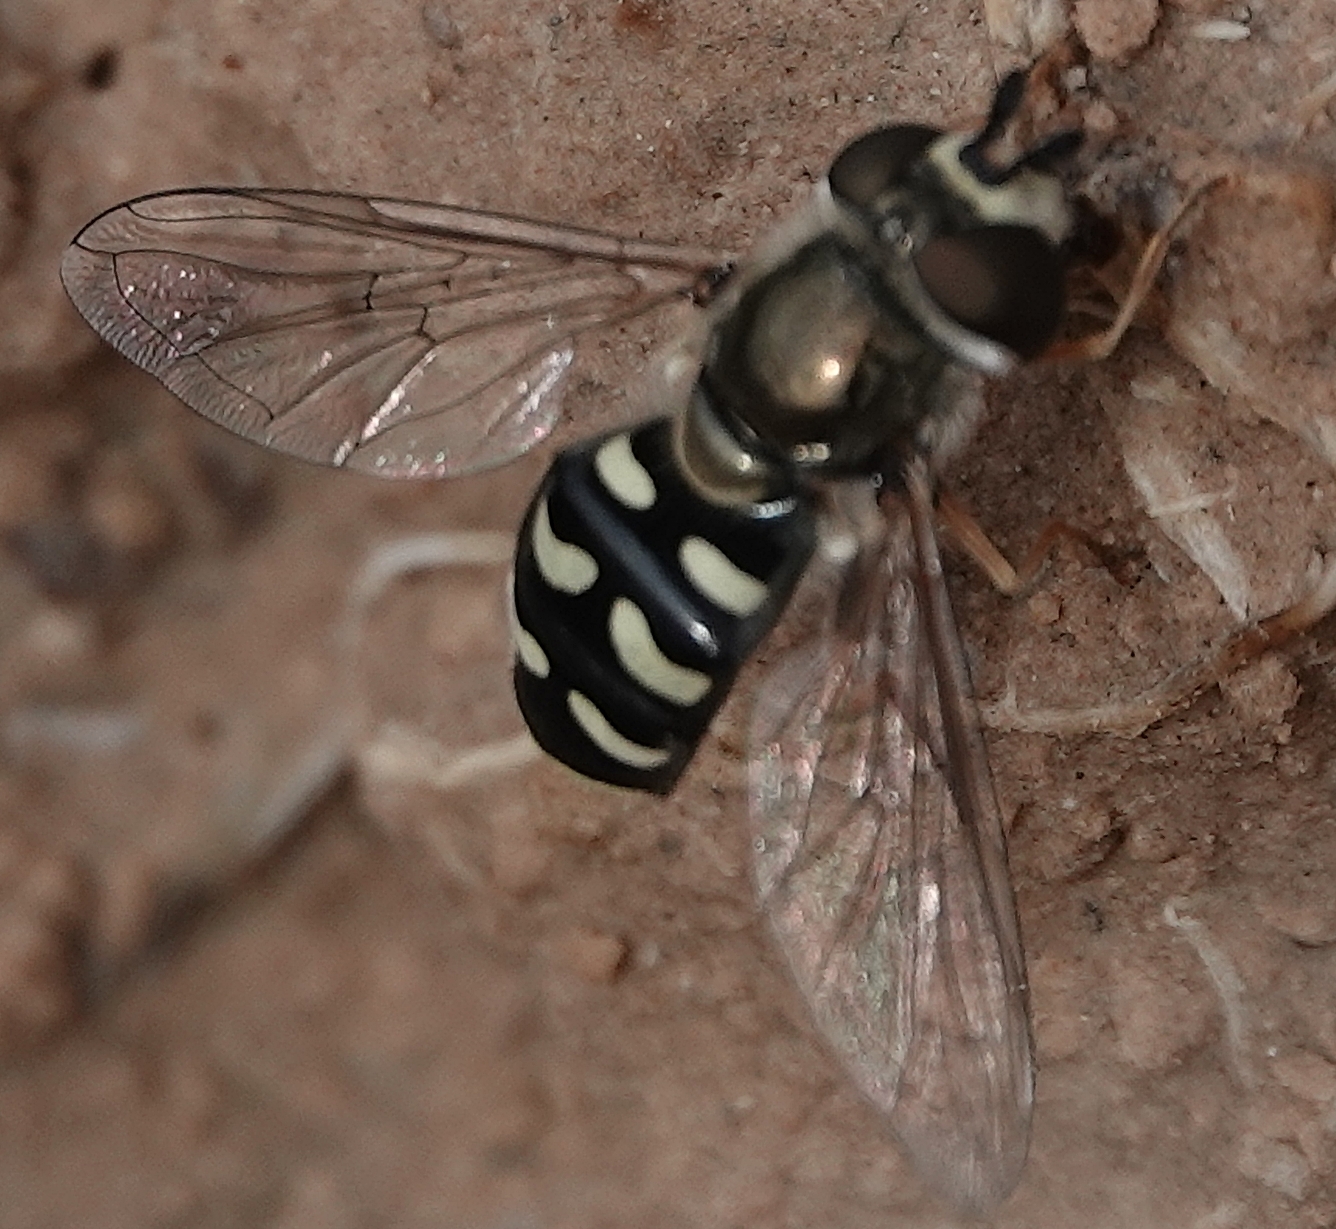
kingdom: Animalia
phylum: Arthropoda
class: Insecta
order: Diptera
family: Syrphidae
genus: Eupeodes
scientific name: Eupeodes volucris
